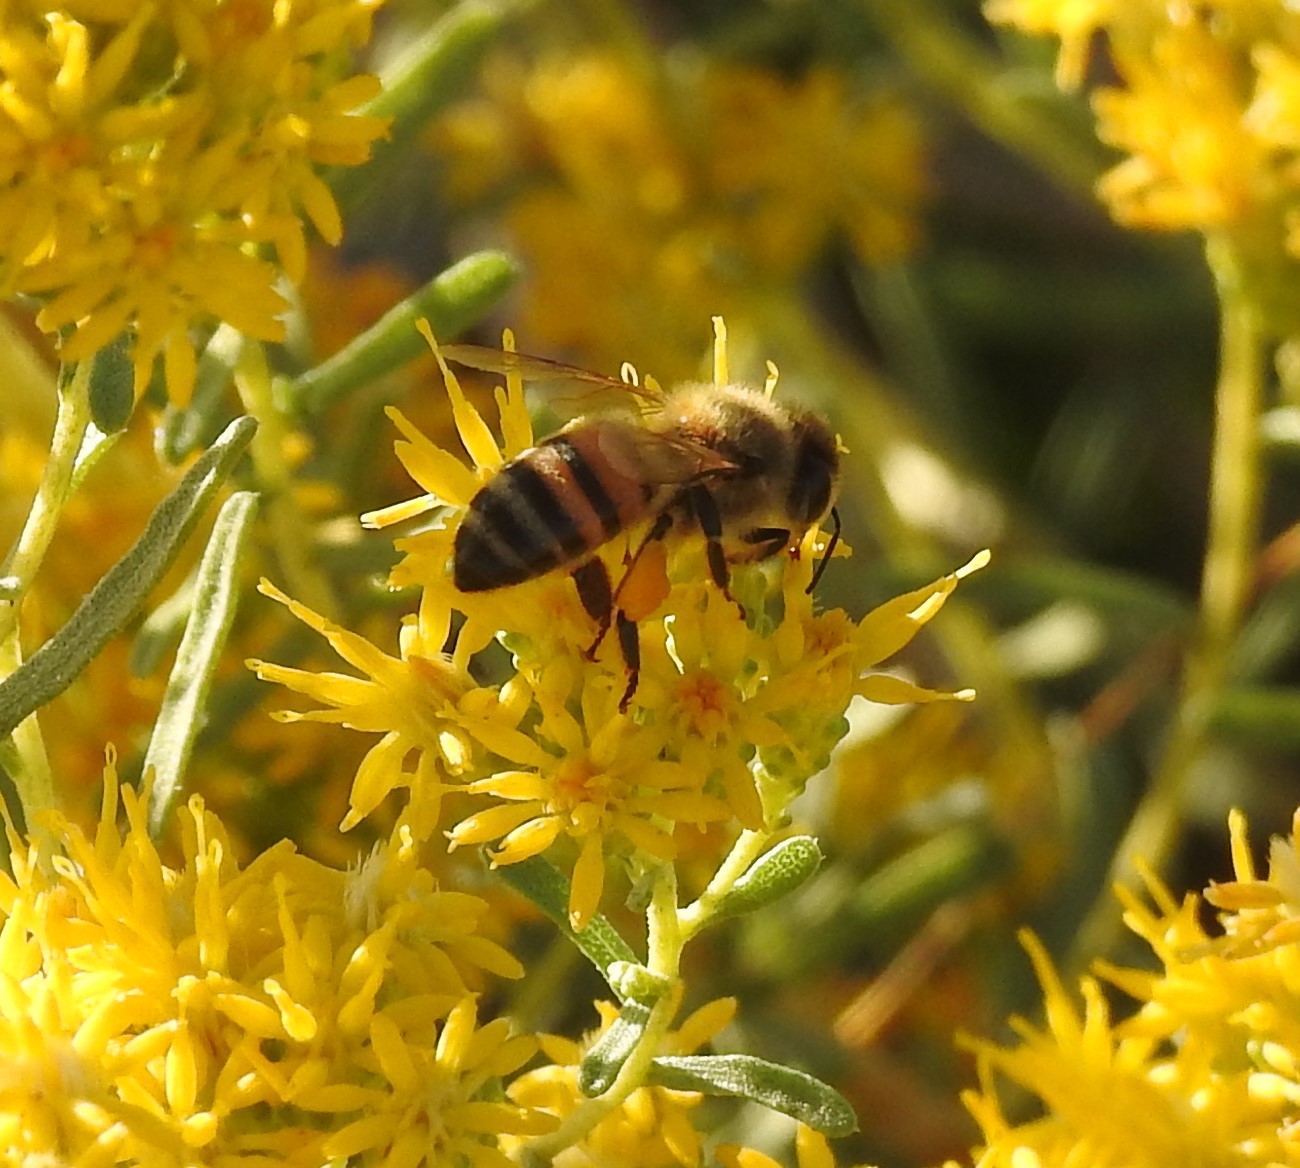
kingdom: Animalia
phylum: Arthropoda
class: Insecta
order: Hymenoptera
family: Apidae
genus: Apis
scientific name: Apis mellifera
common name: Honey bee
